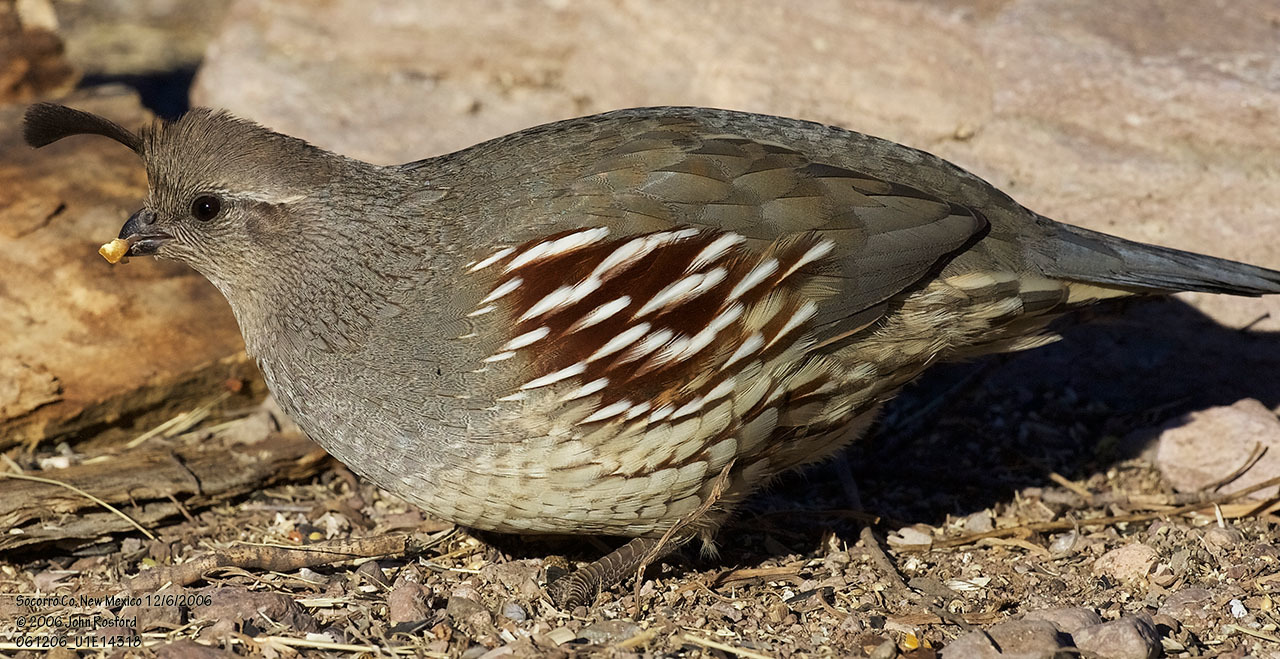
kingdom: Animalia
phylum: Chordata
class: Aves
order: Galliformes
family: Odontophoridae
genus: Callipepla
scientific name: Callipepla gambelii
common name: Gambel's quail
